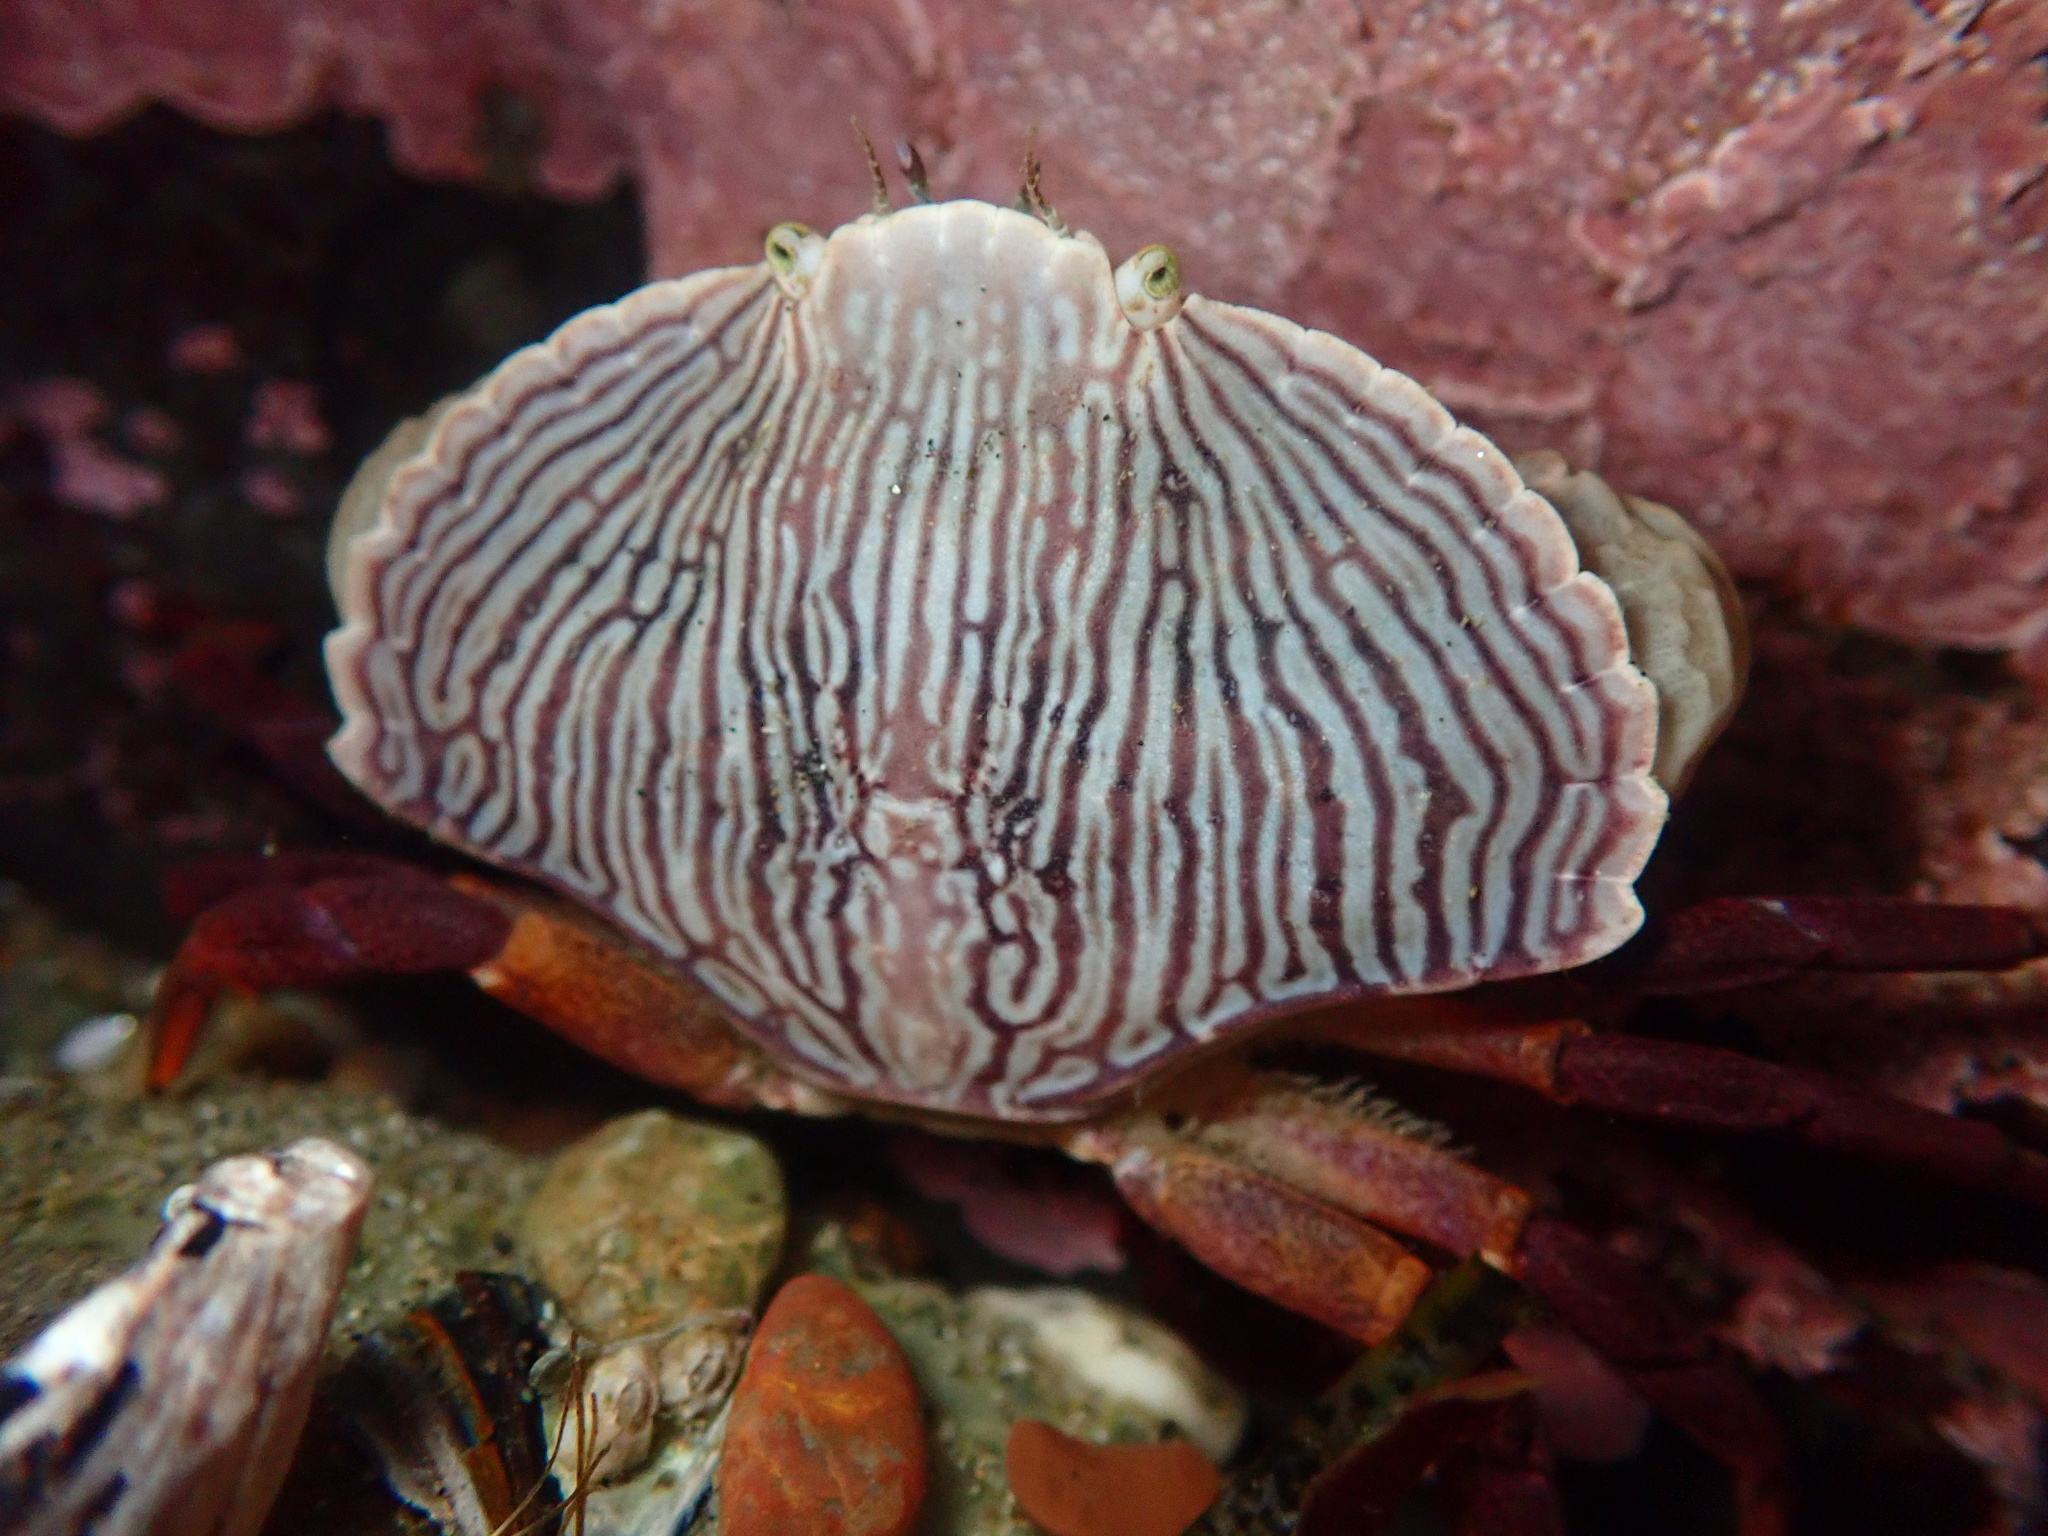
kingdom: Animalia
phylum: Arthropoda
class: Malacostraca
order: Decapoda
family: Cancridae
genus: Cancer
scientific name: Cancer productus
